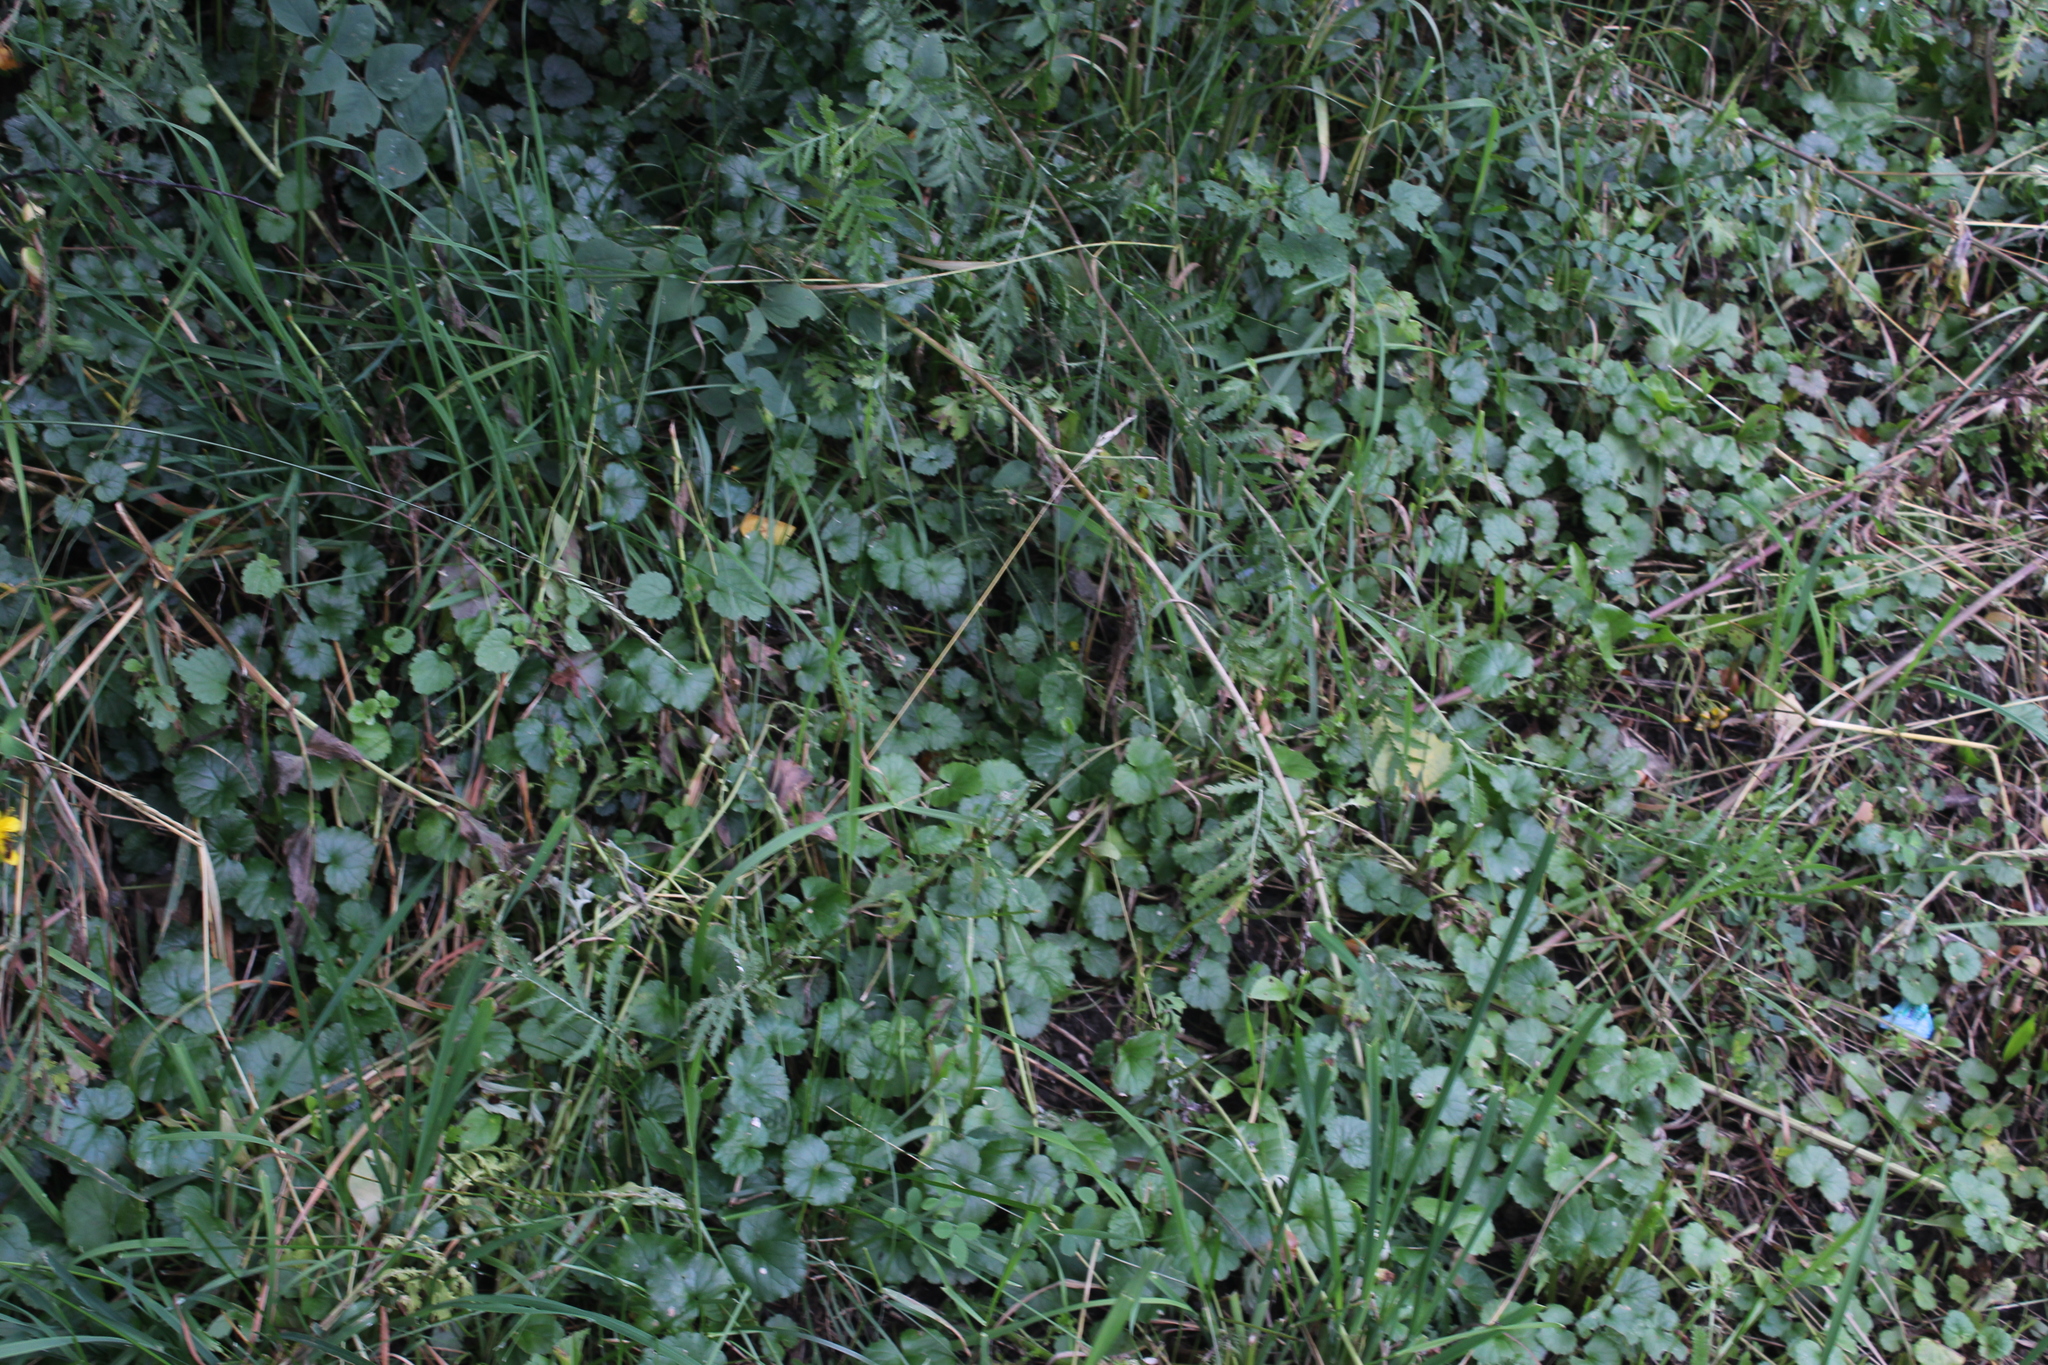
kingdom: Plantae
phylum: Tracheophyta
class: Magnoliopsida
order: Lamiales
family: Lamiaceae
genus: Glechoma
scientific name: Glechoma hederacea
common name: Ground ivy
